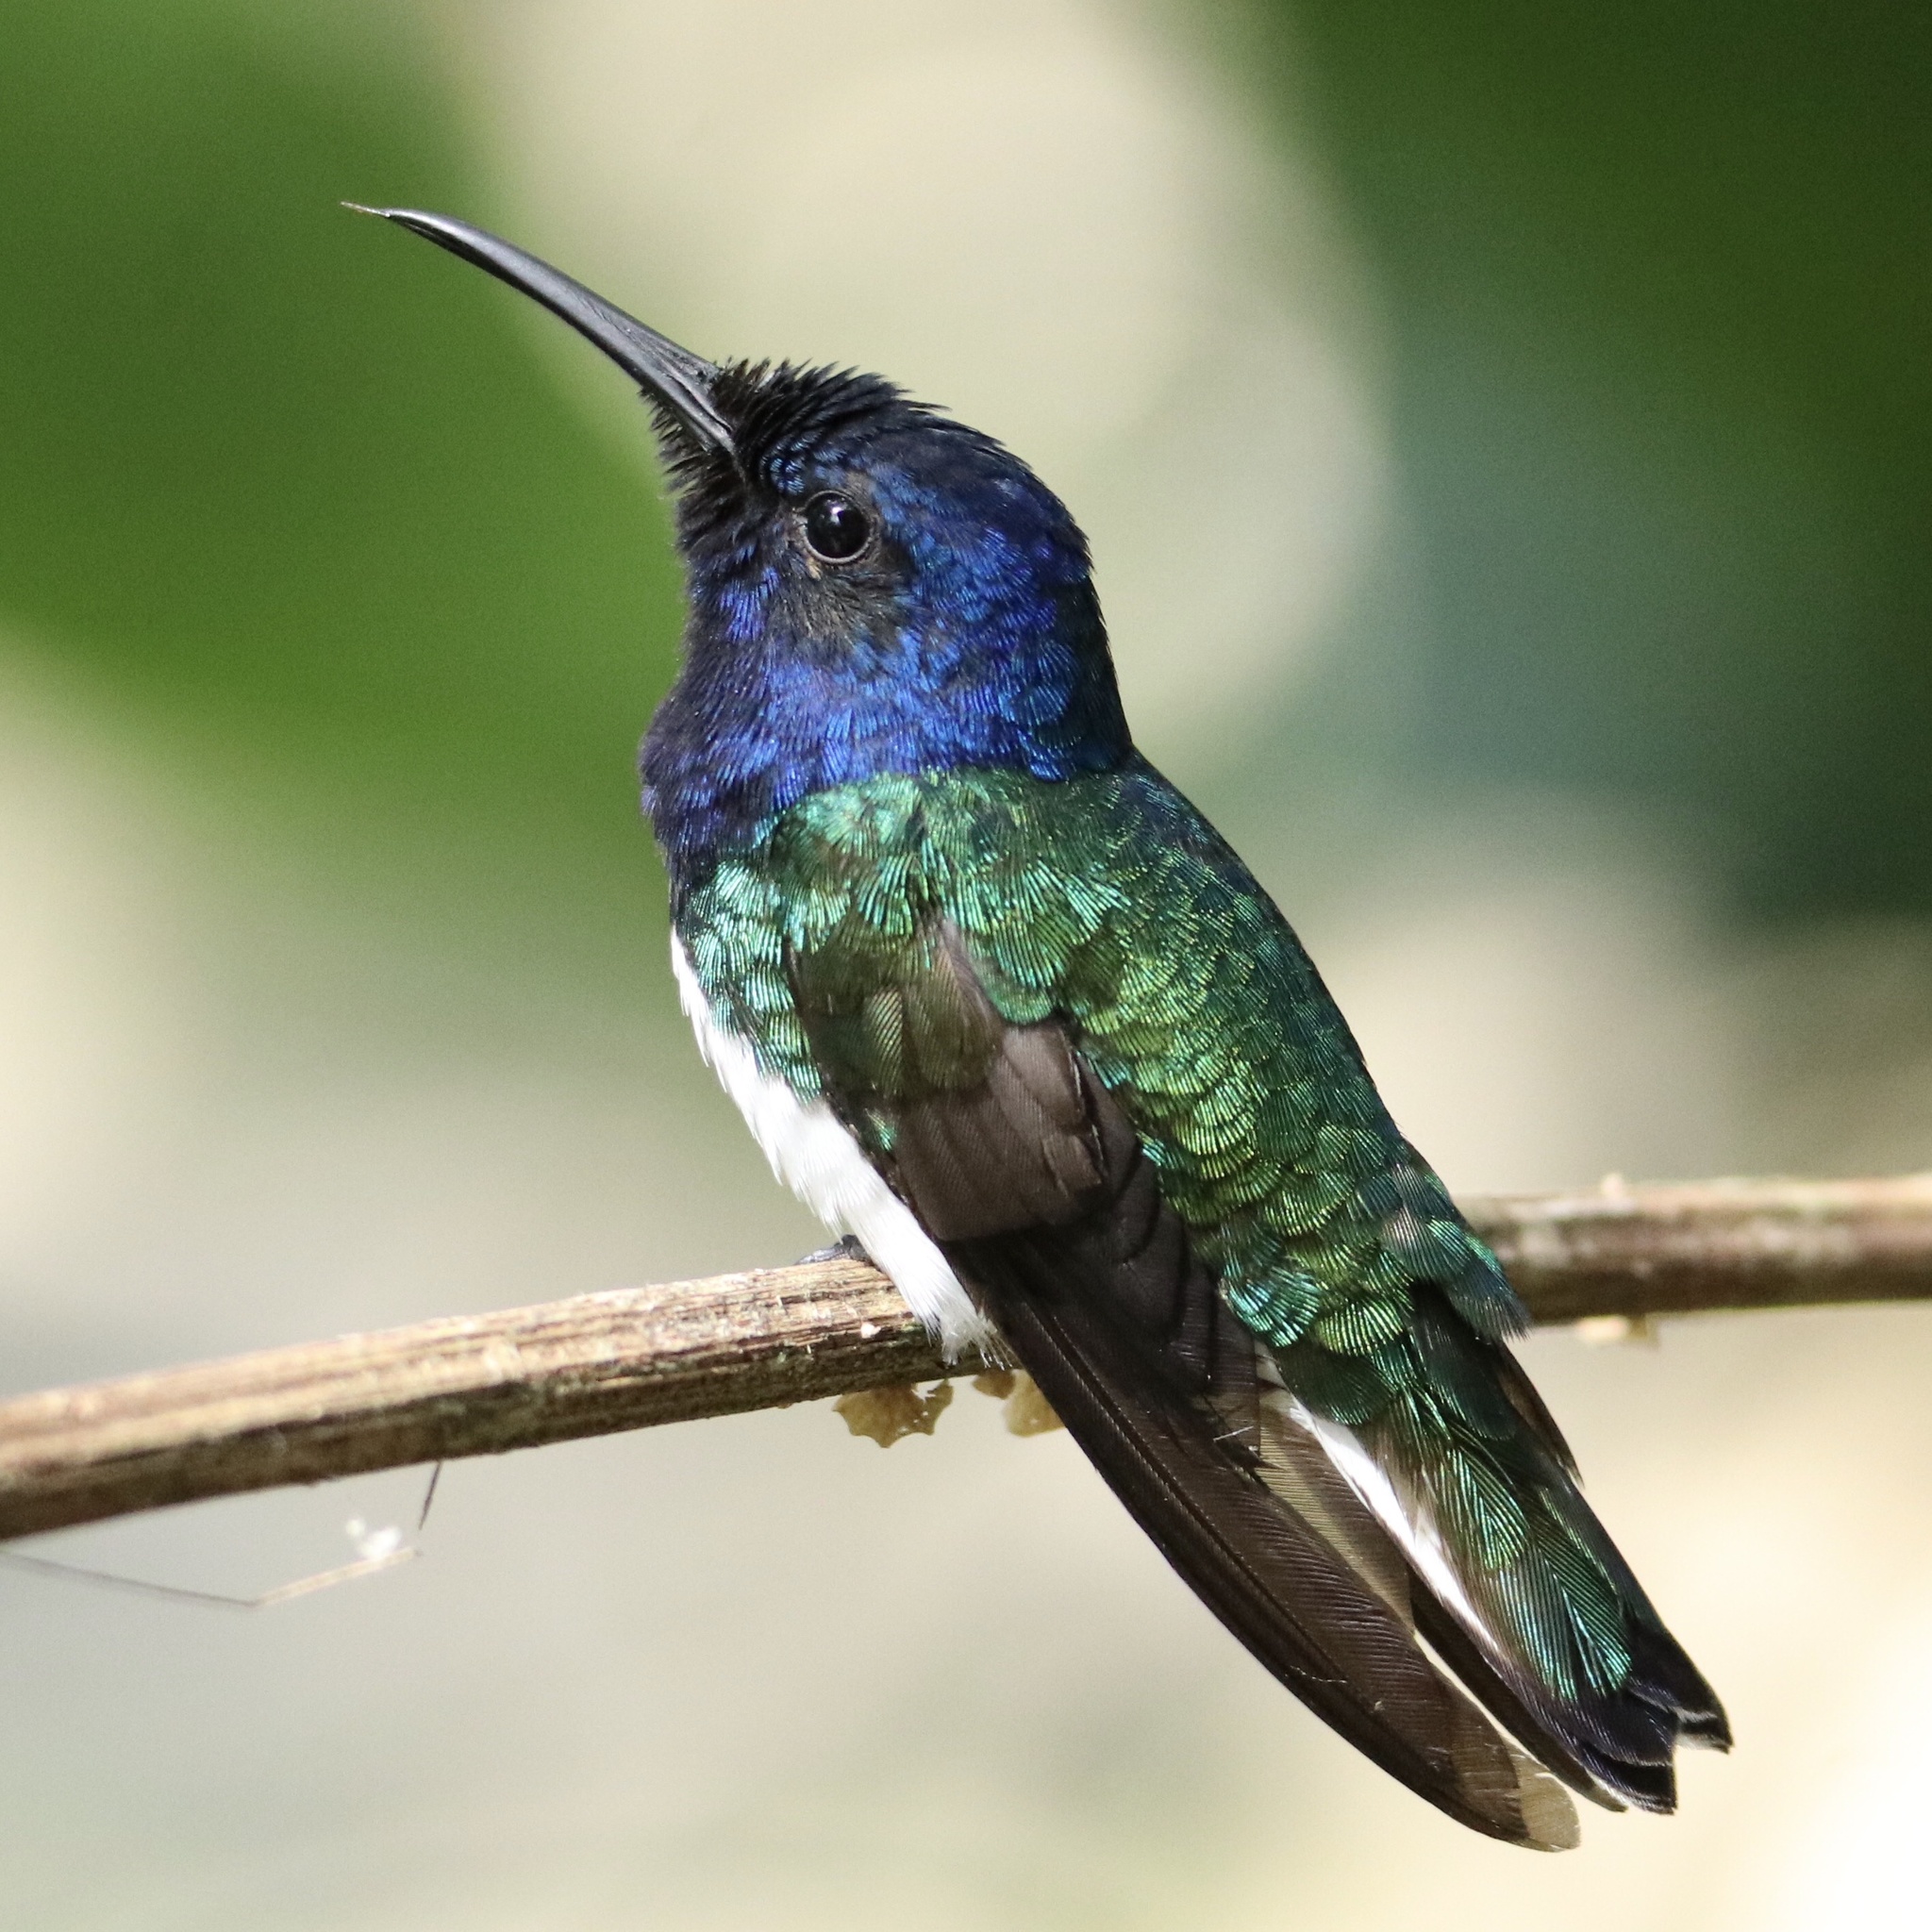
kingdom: Animalia
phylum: Chordata
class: Aves
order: Apodiformes
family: Trochilidae
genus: Florisuga
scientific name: Florisuga mellivora
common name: White-necked jacobin
